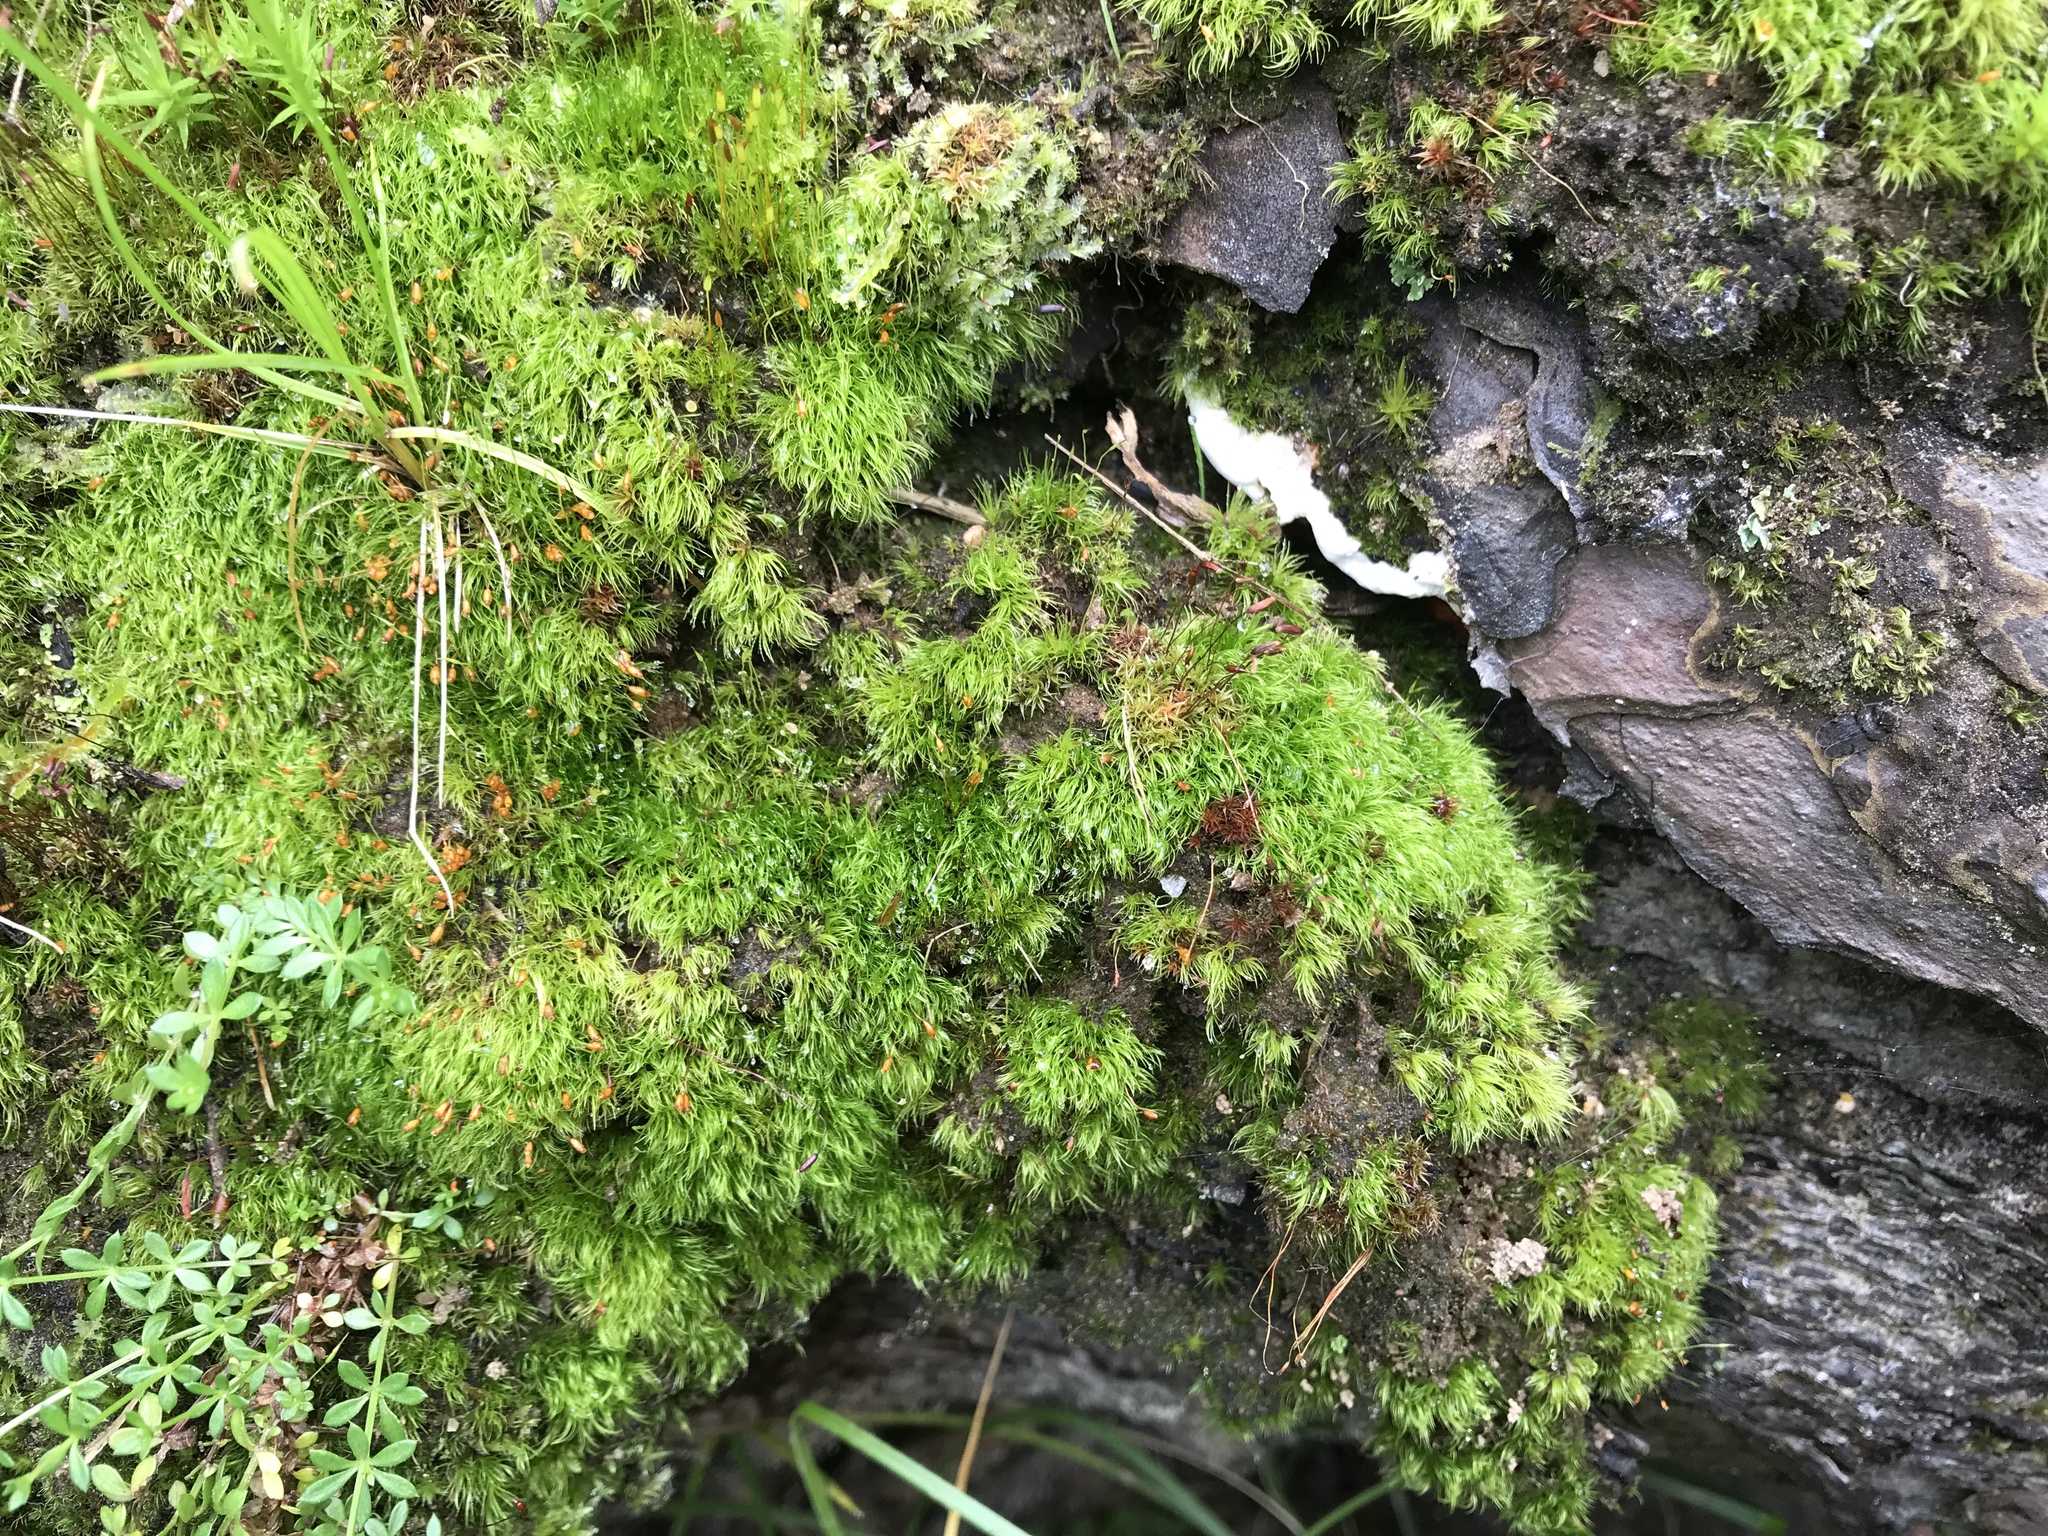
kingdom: Plantae
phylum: Bryophyta
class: Bryopsida
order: Dicranales
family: Dicranellaceae
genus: Dicranella
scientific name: Dicranella heteromalla
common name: Silky forklet moss
